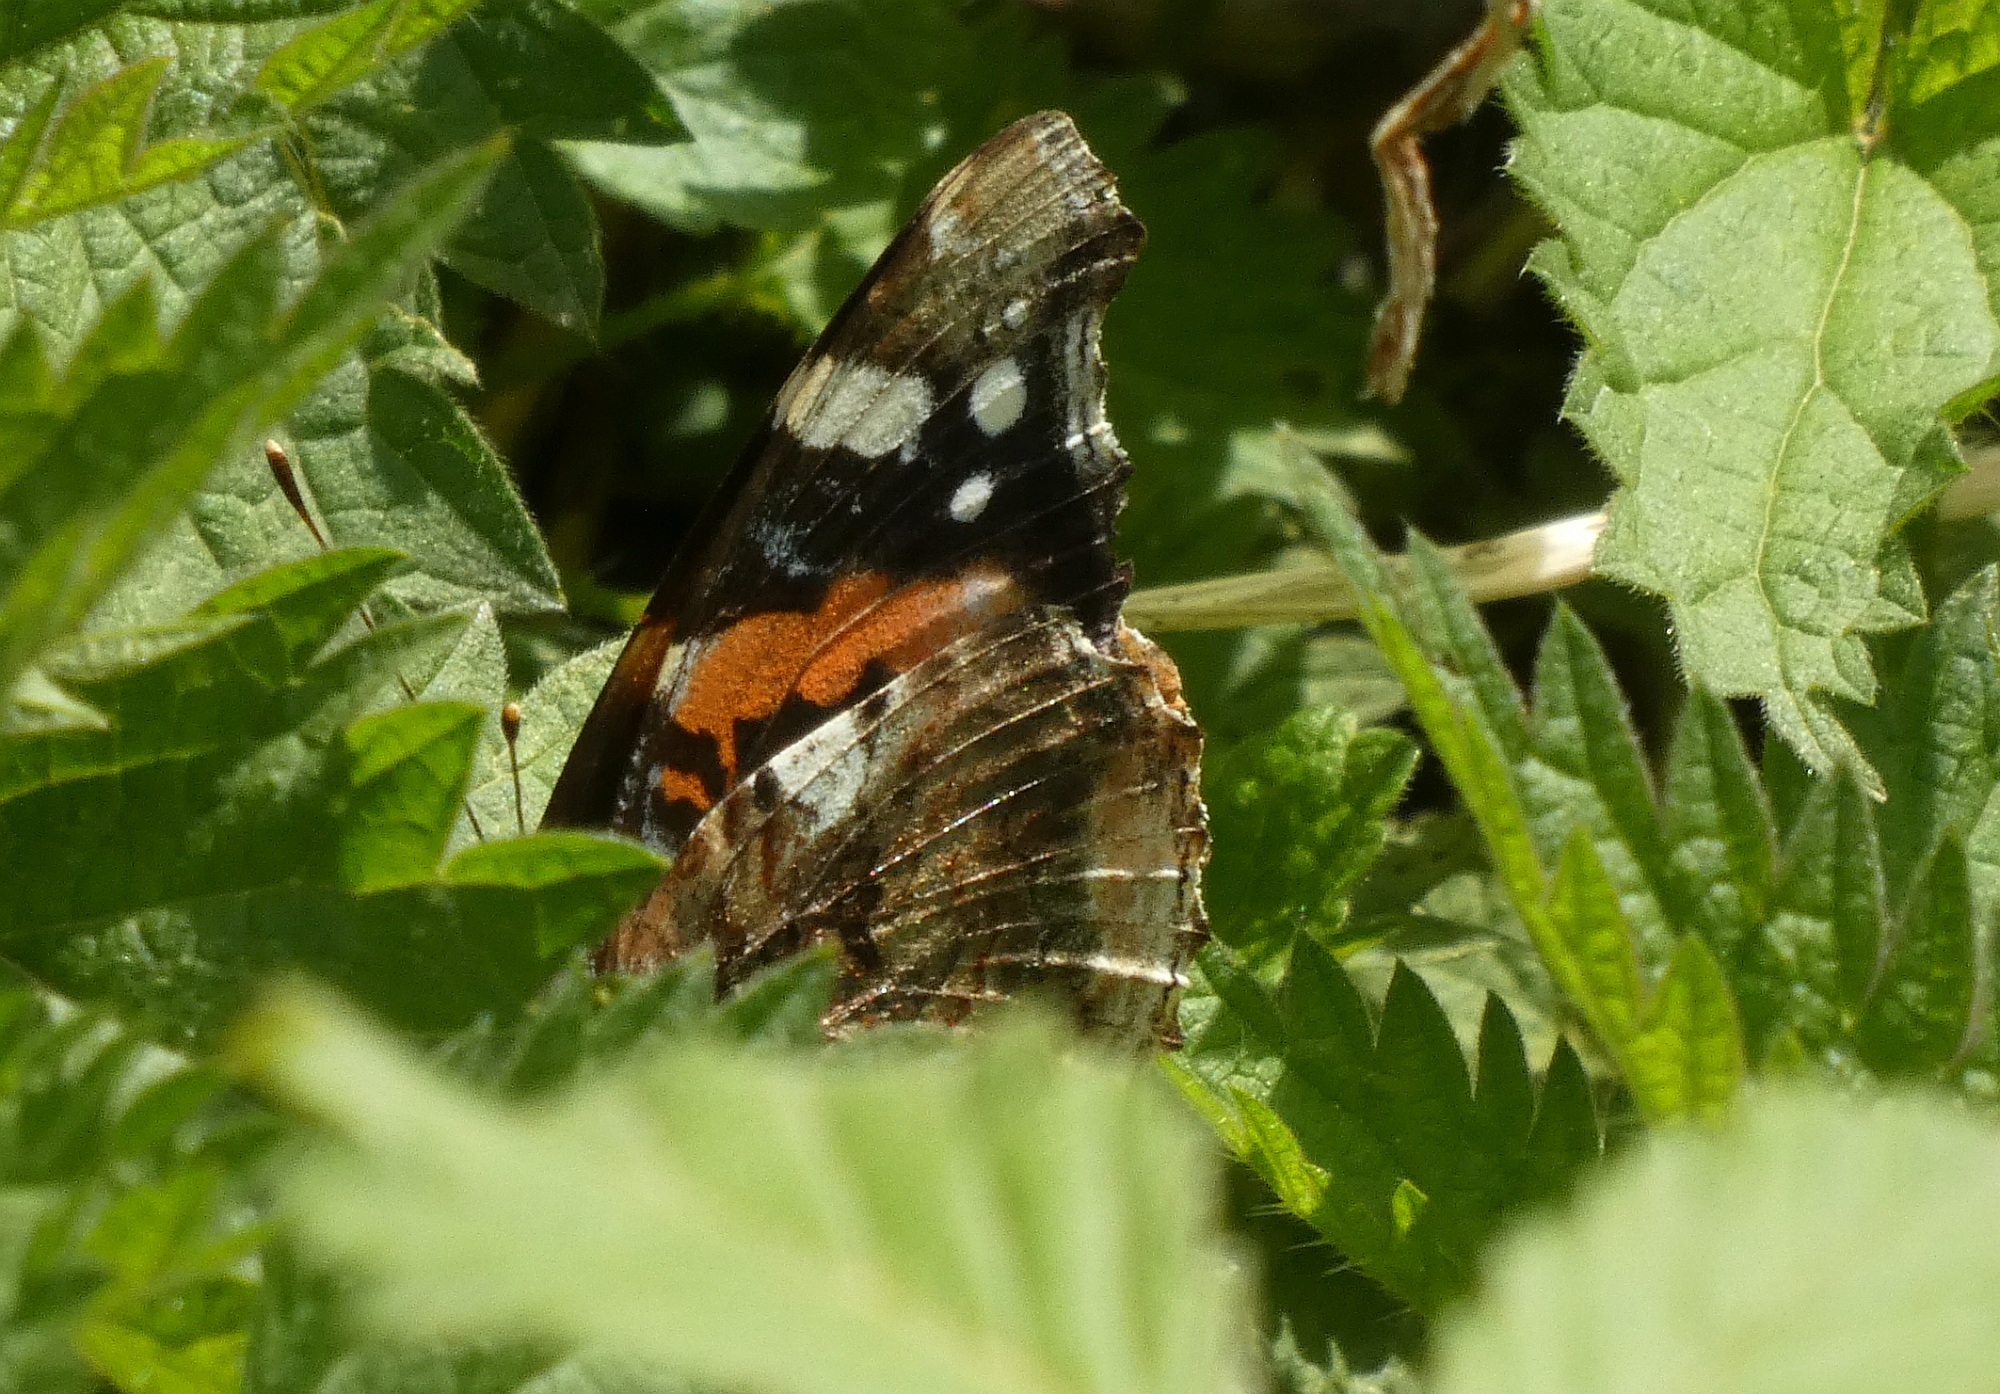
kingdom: Animalia
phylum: Arthropoda
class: Insecta
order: Lepidoptera
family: Nymphalidae
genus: Vanessa
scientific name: Vanessa atalanta
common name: Red admiral
